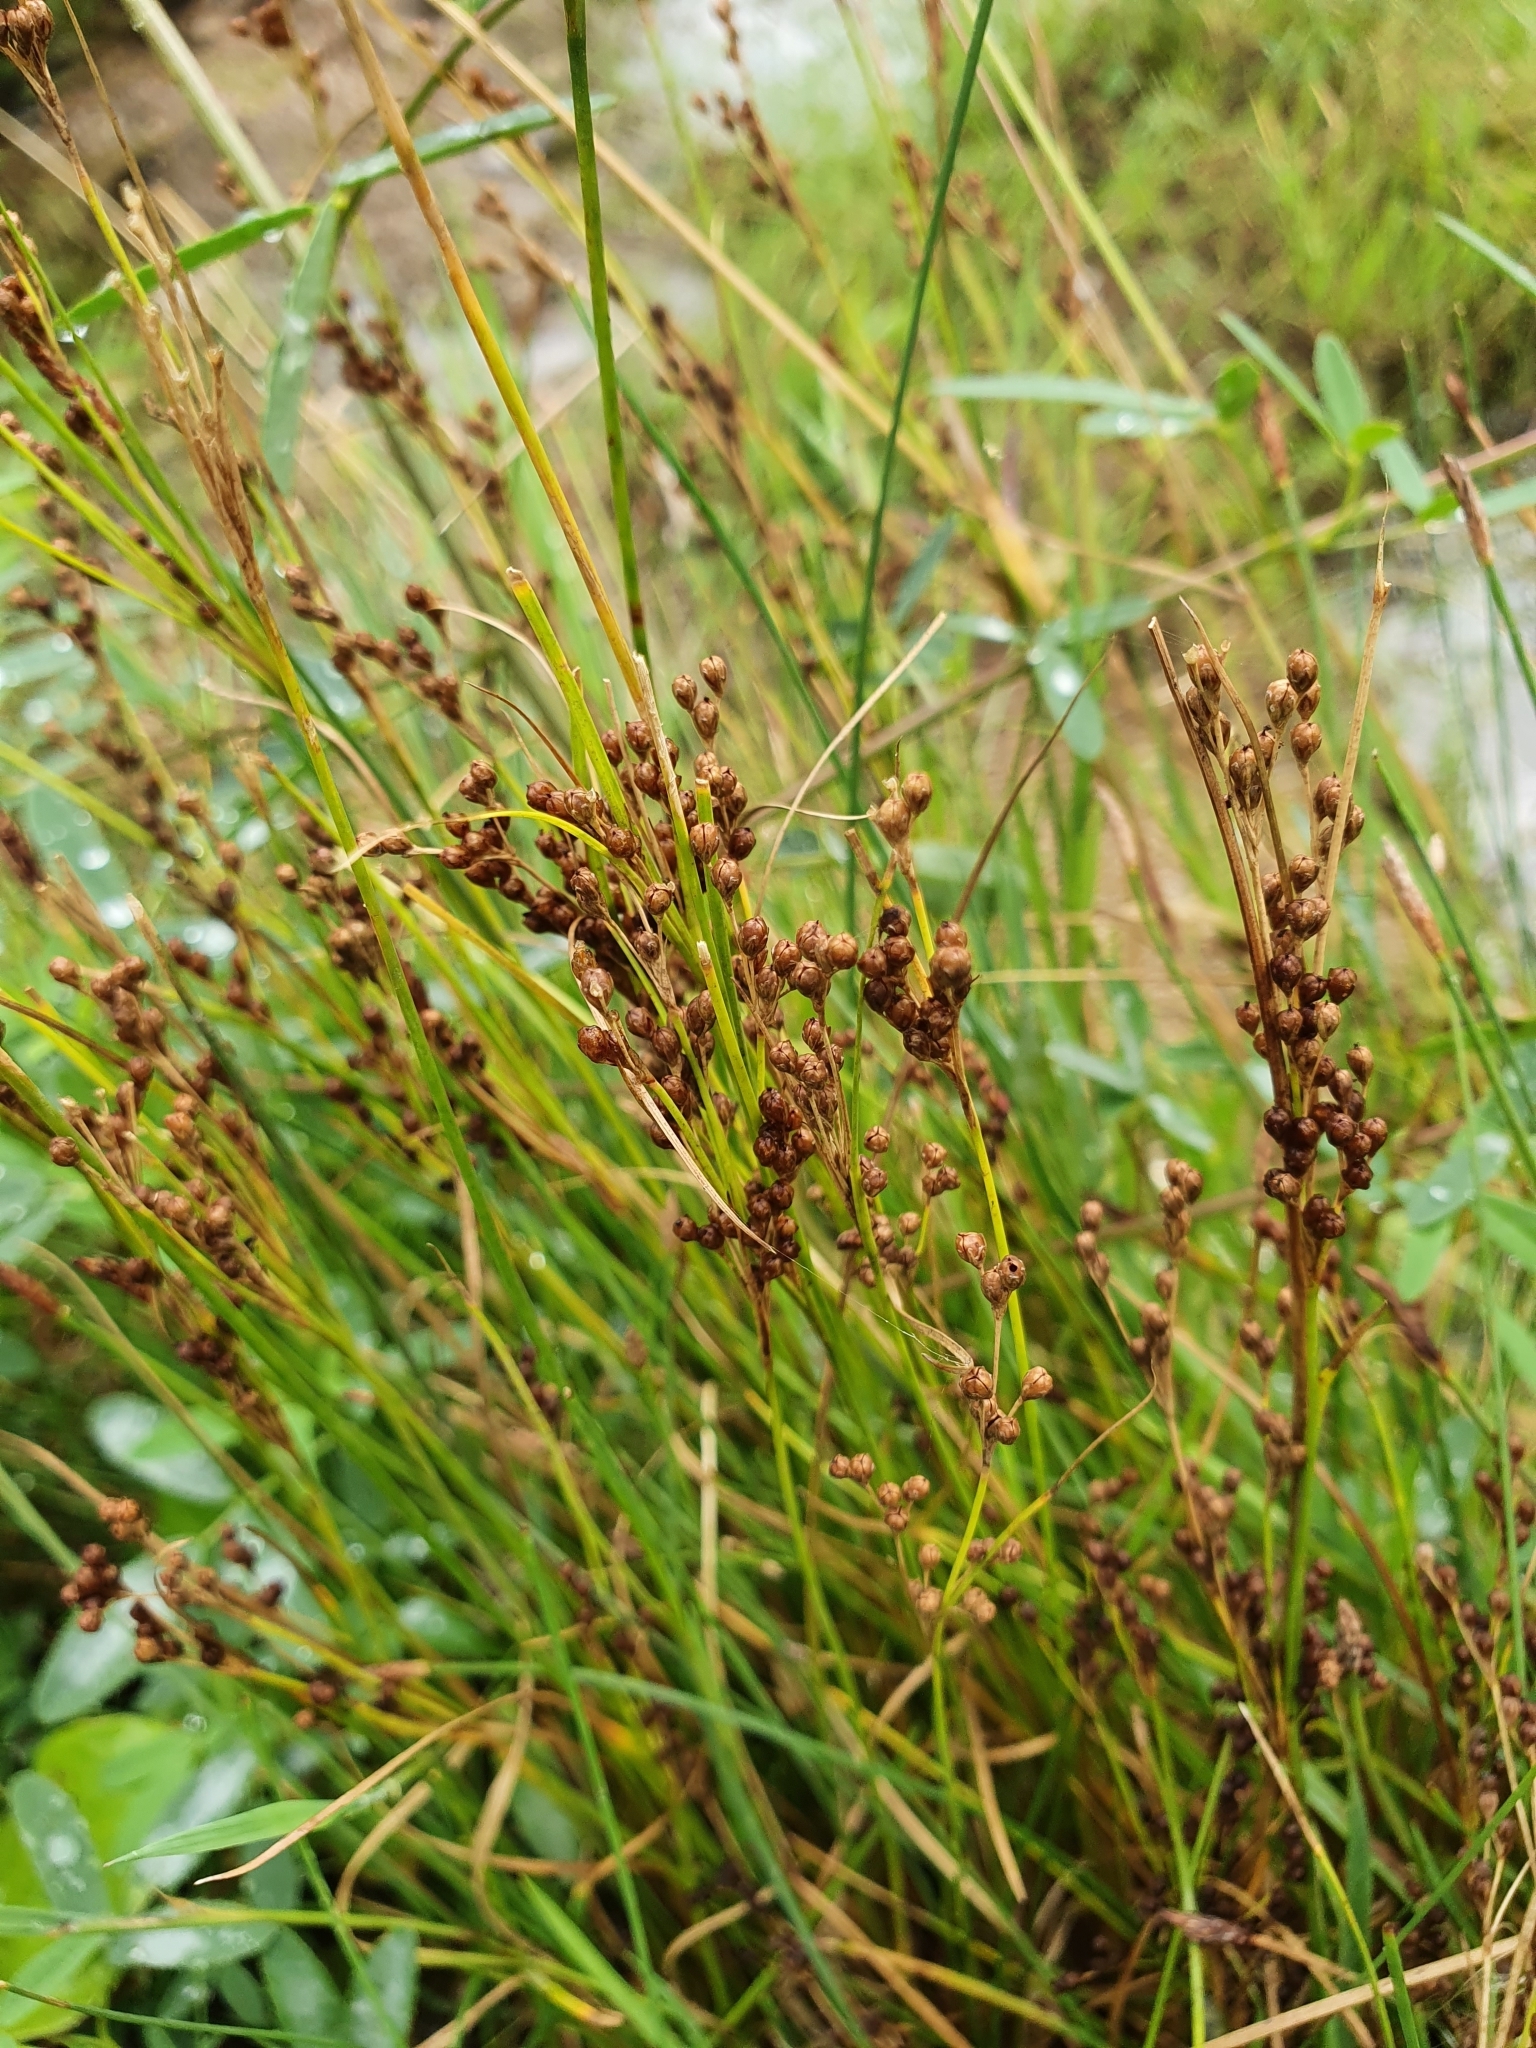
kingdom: Plantae
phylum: Tracheophyta
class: Liliopsida
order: Poales
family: Juncaceae
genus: Juncus
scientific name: Juncus gerardi
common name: Saltmarsh rush
